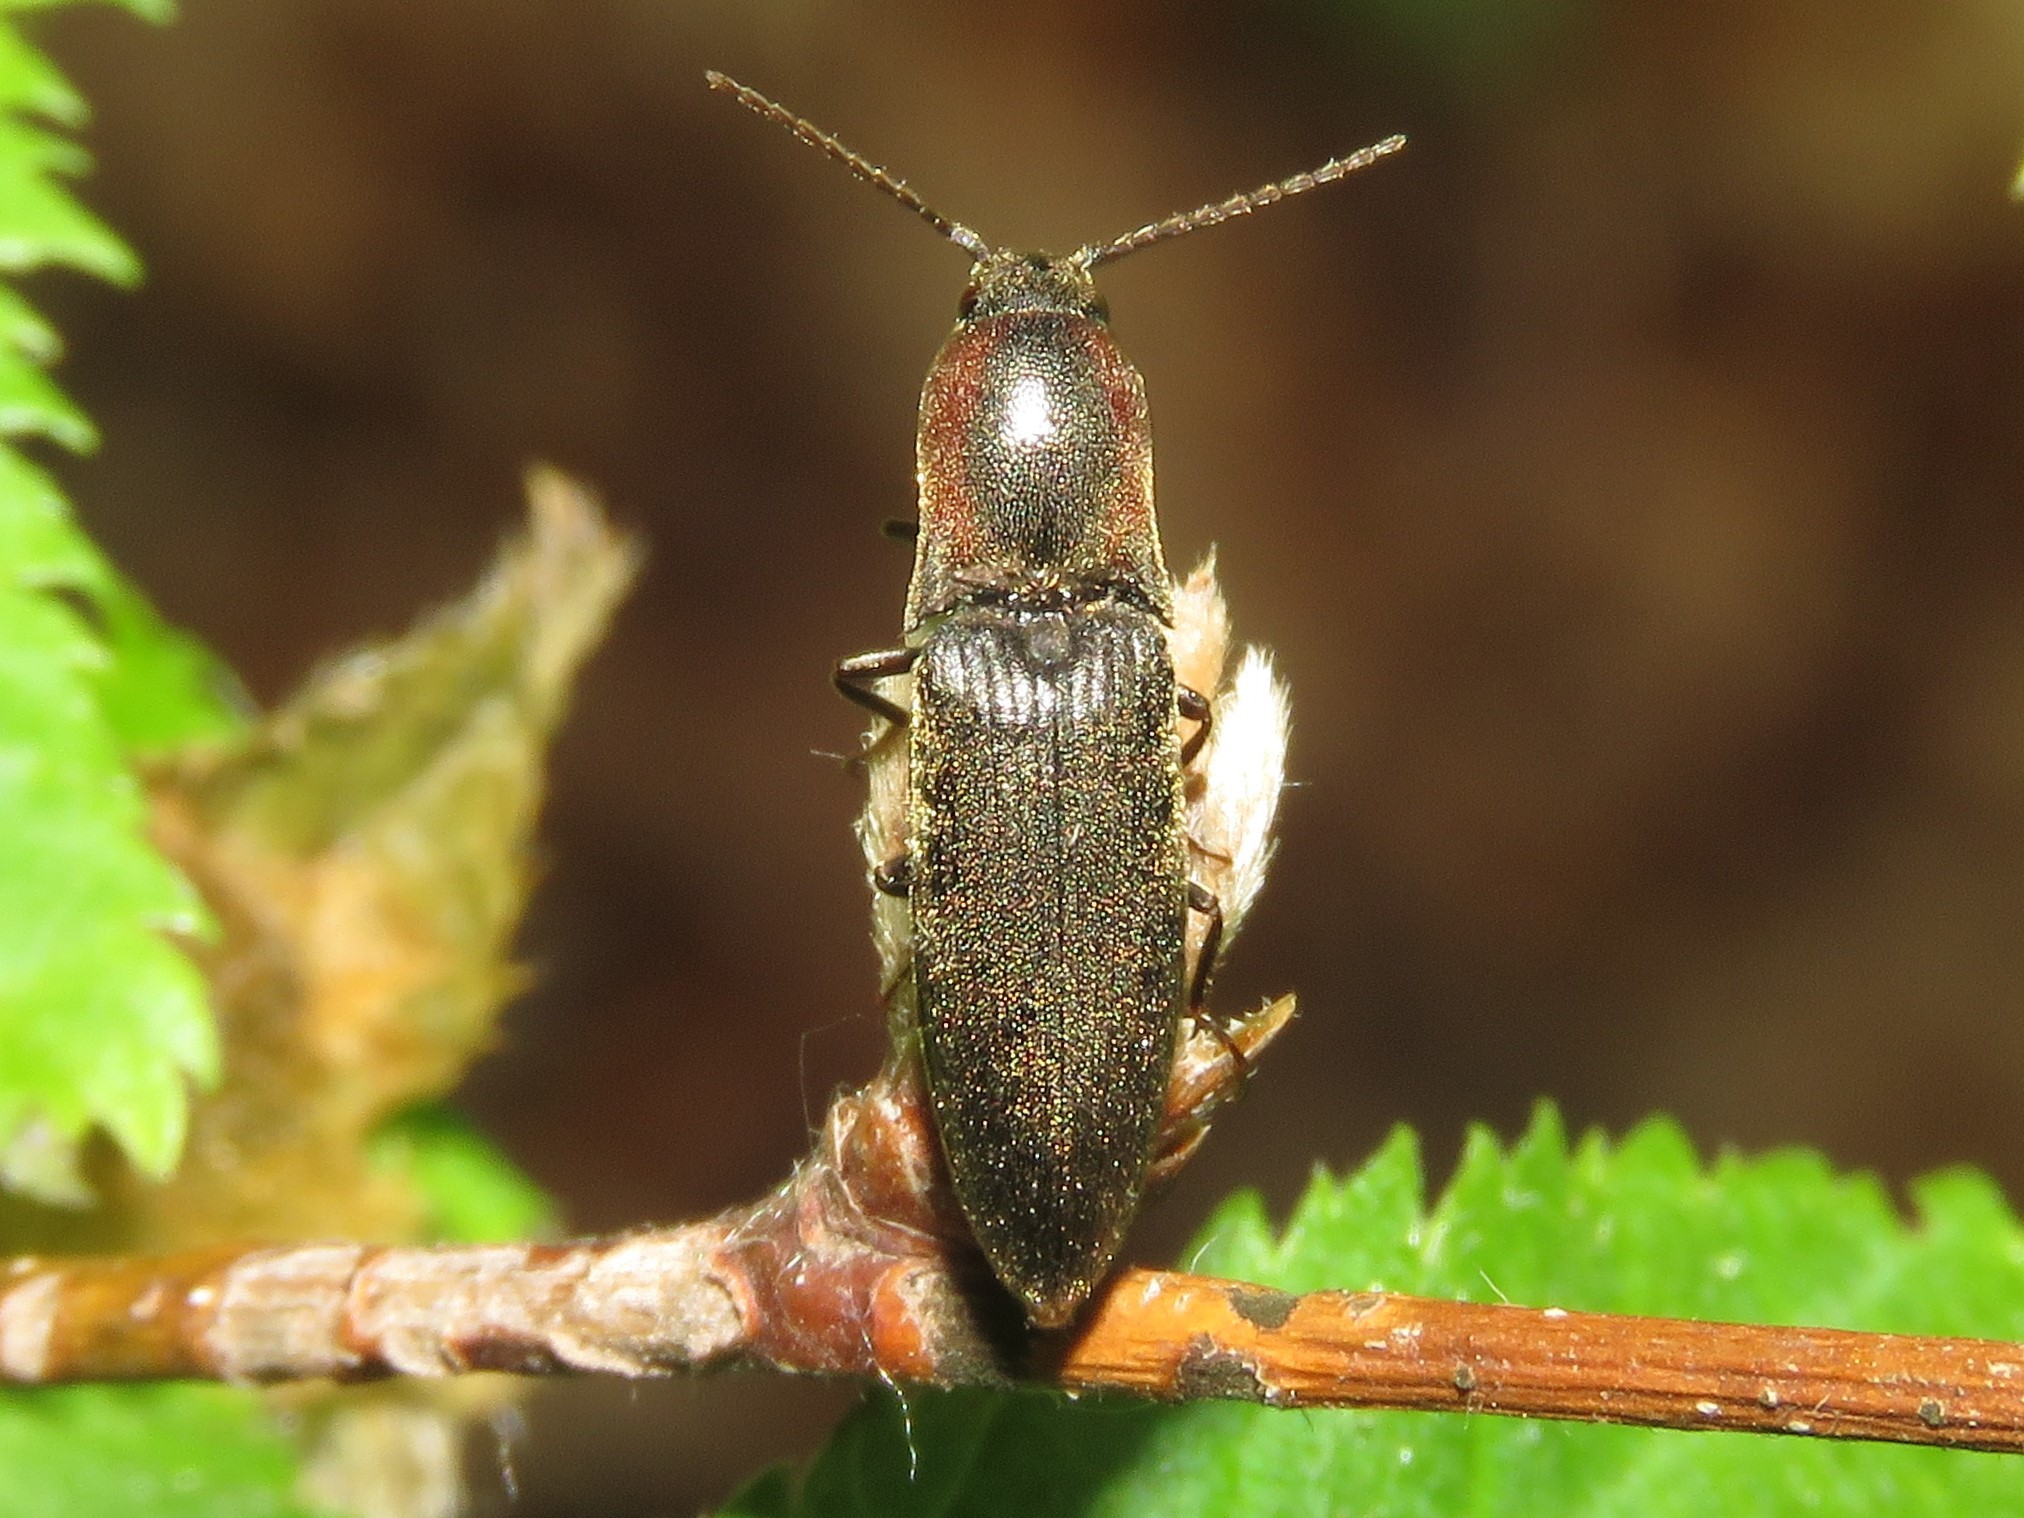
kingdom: Animalia
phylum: Arthropoda
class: Insecta
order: Coleoptera
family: Elateridae
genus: Agriotes
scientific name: Agriotes fucosus
